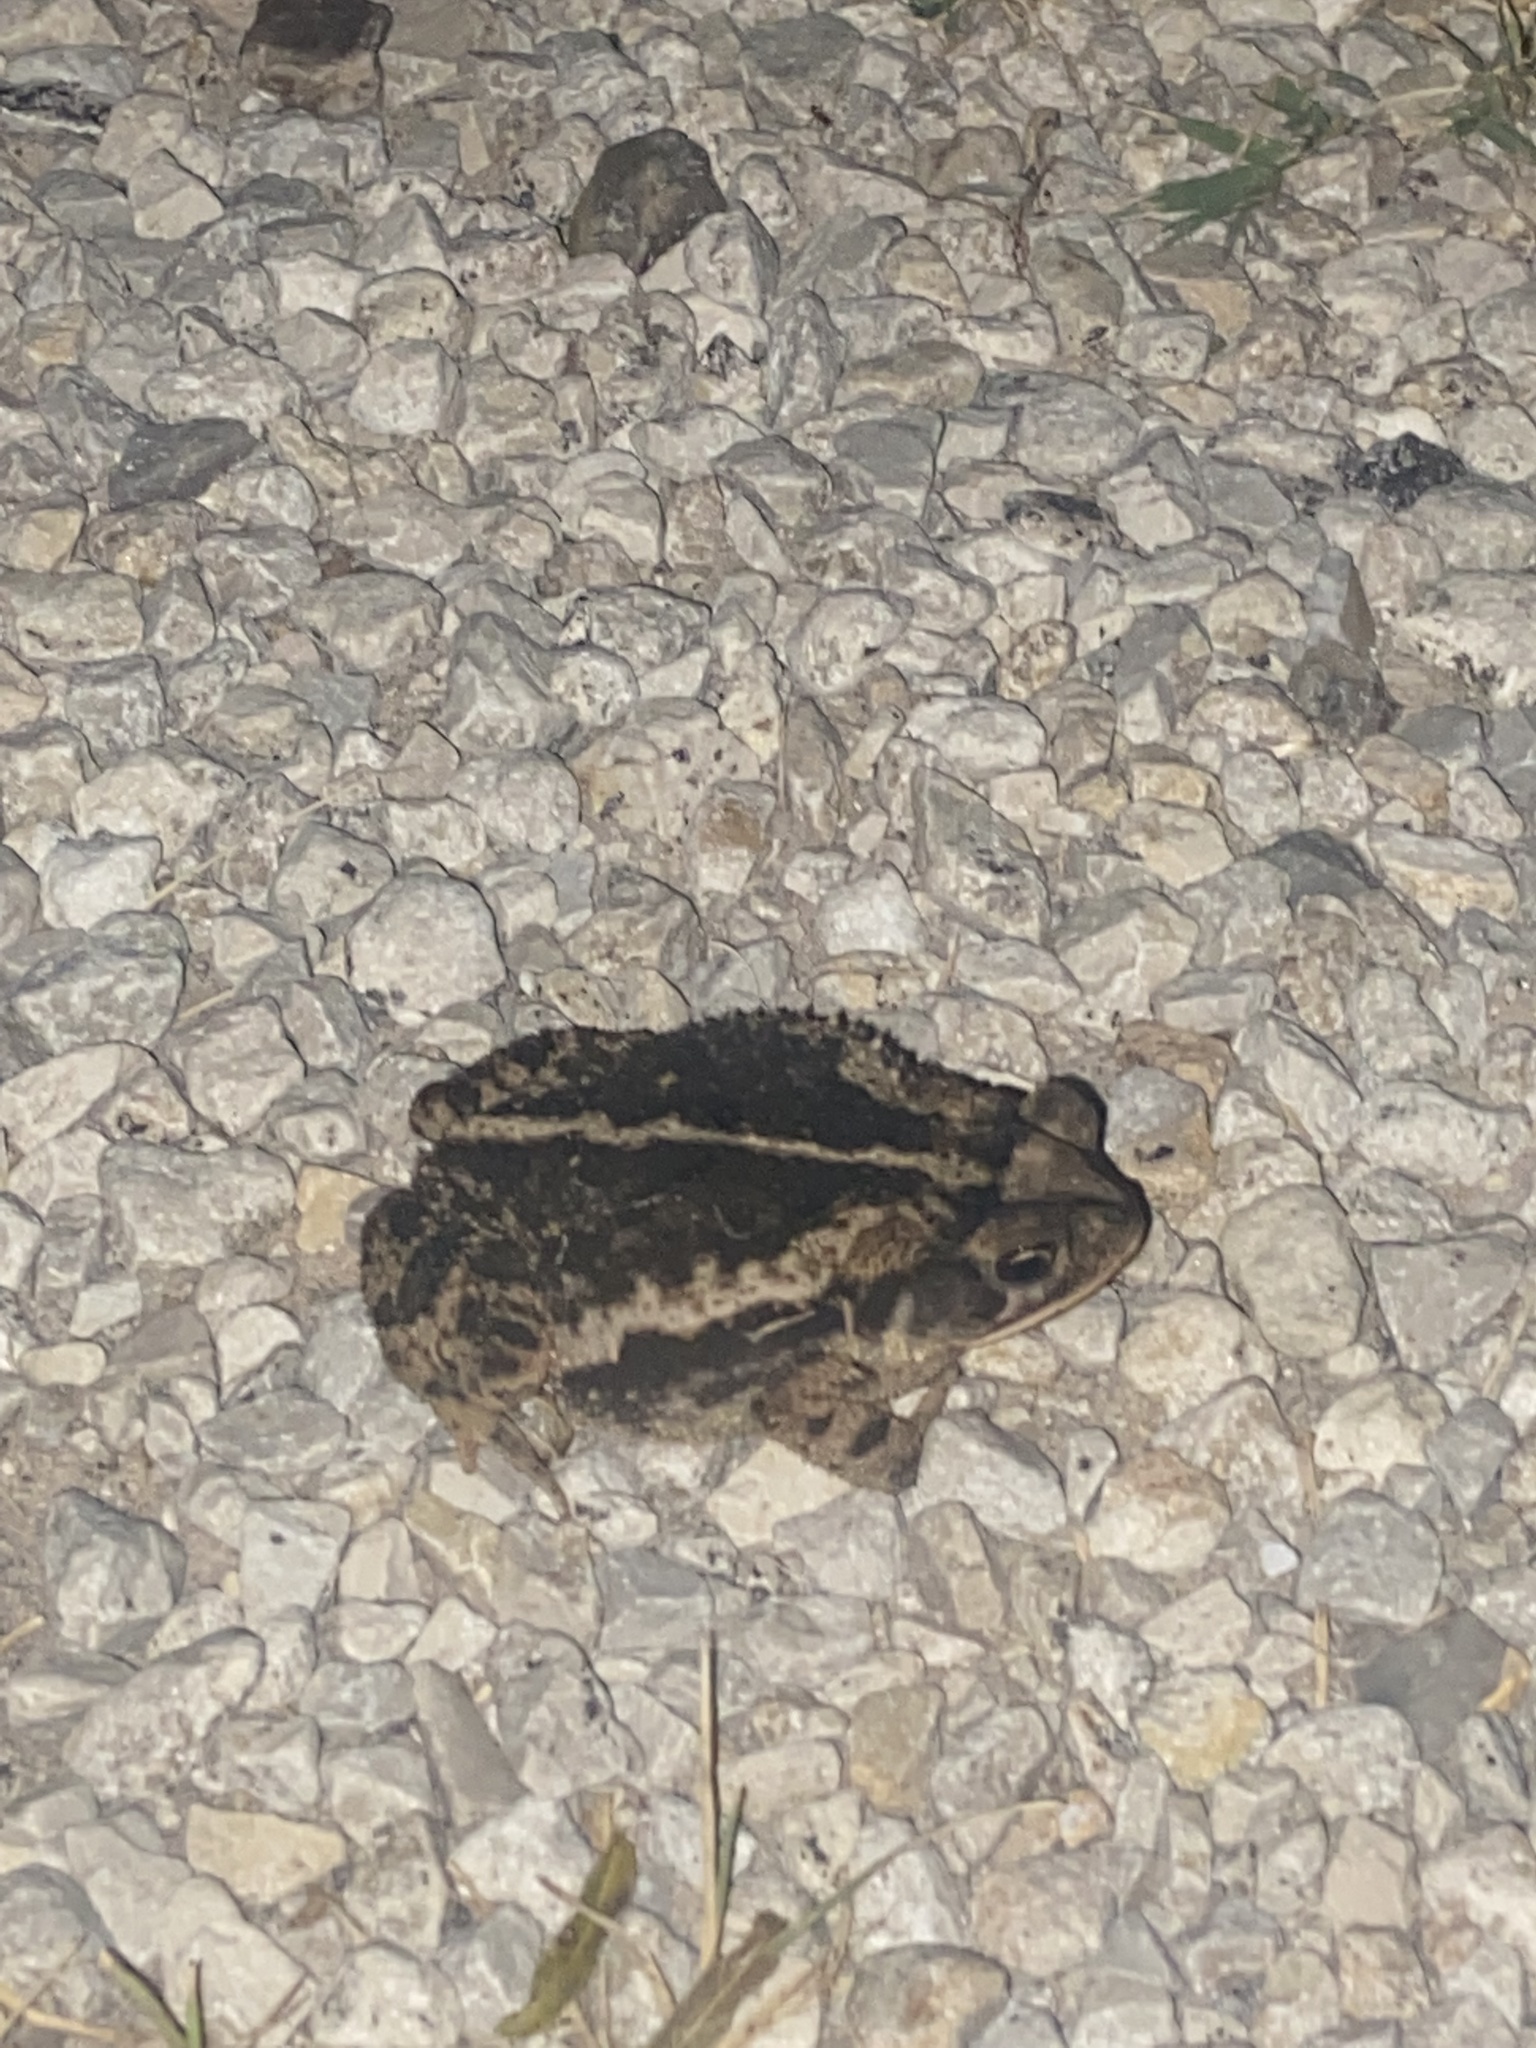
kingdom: Animalia
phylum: Chordata
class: Amphibia
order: Anura
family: Bufonidae
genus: Incilius
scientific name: Incilius nebulifer
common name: Gulf coast toad
